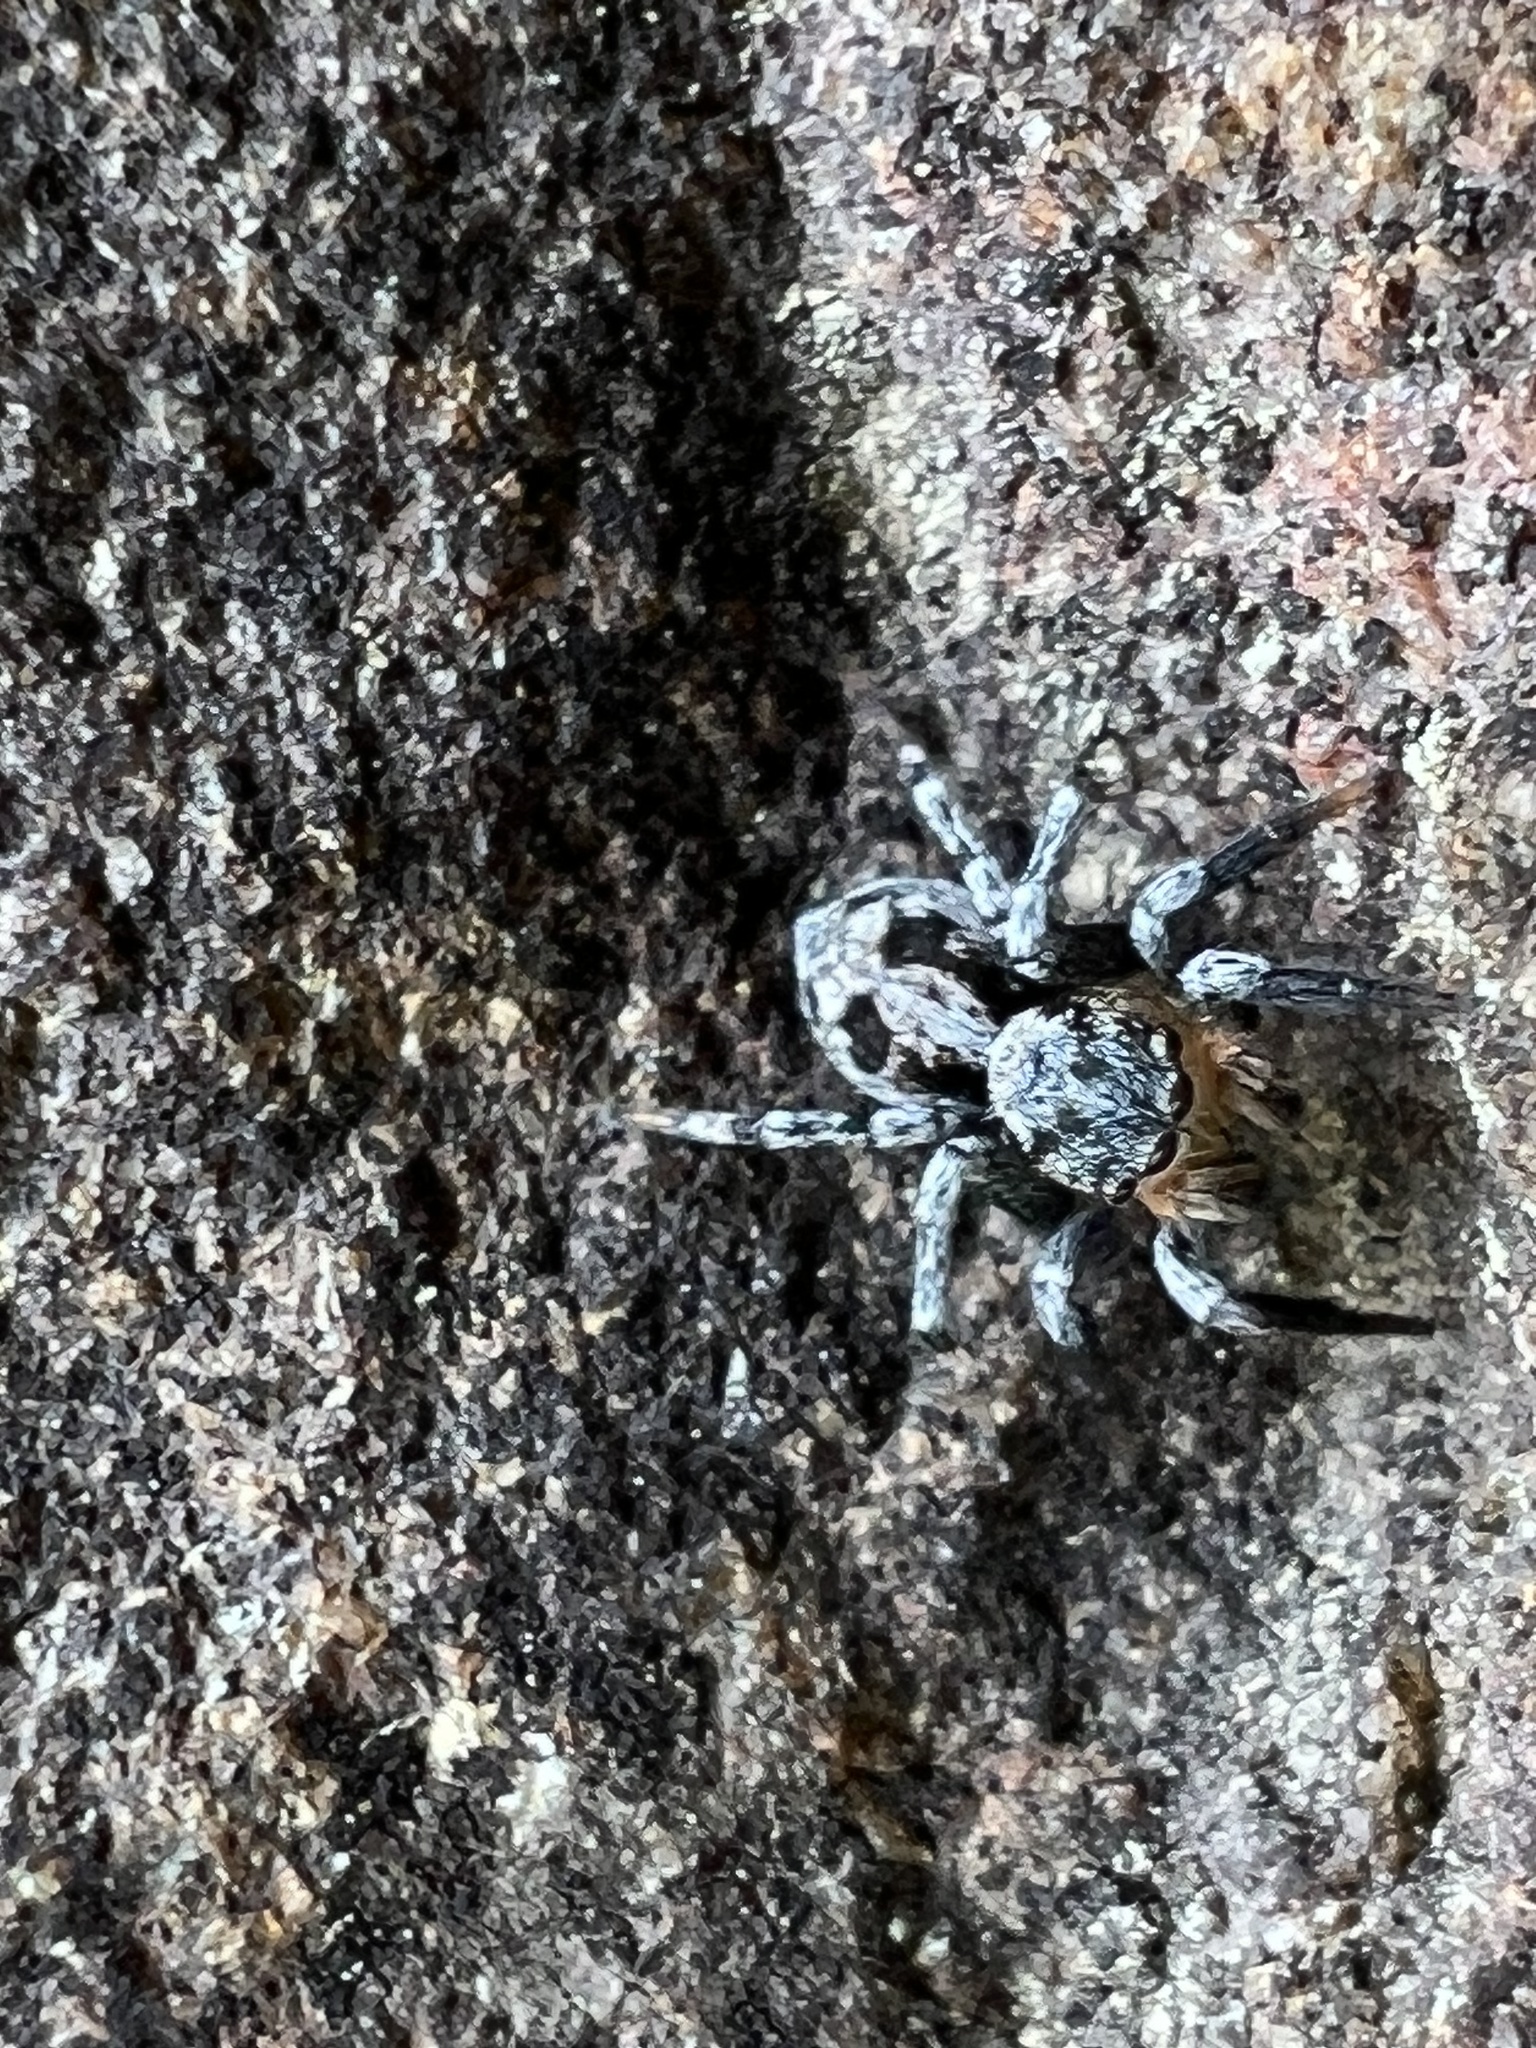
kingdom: Animalia
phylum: Arthropoda
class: Arachnida
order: Araneae
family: Salticidae
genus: Naphrys
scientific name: Naphrys pulex
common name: Flea jumping spider
